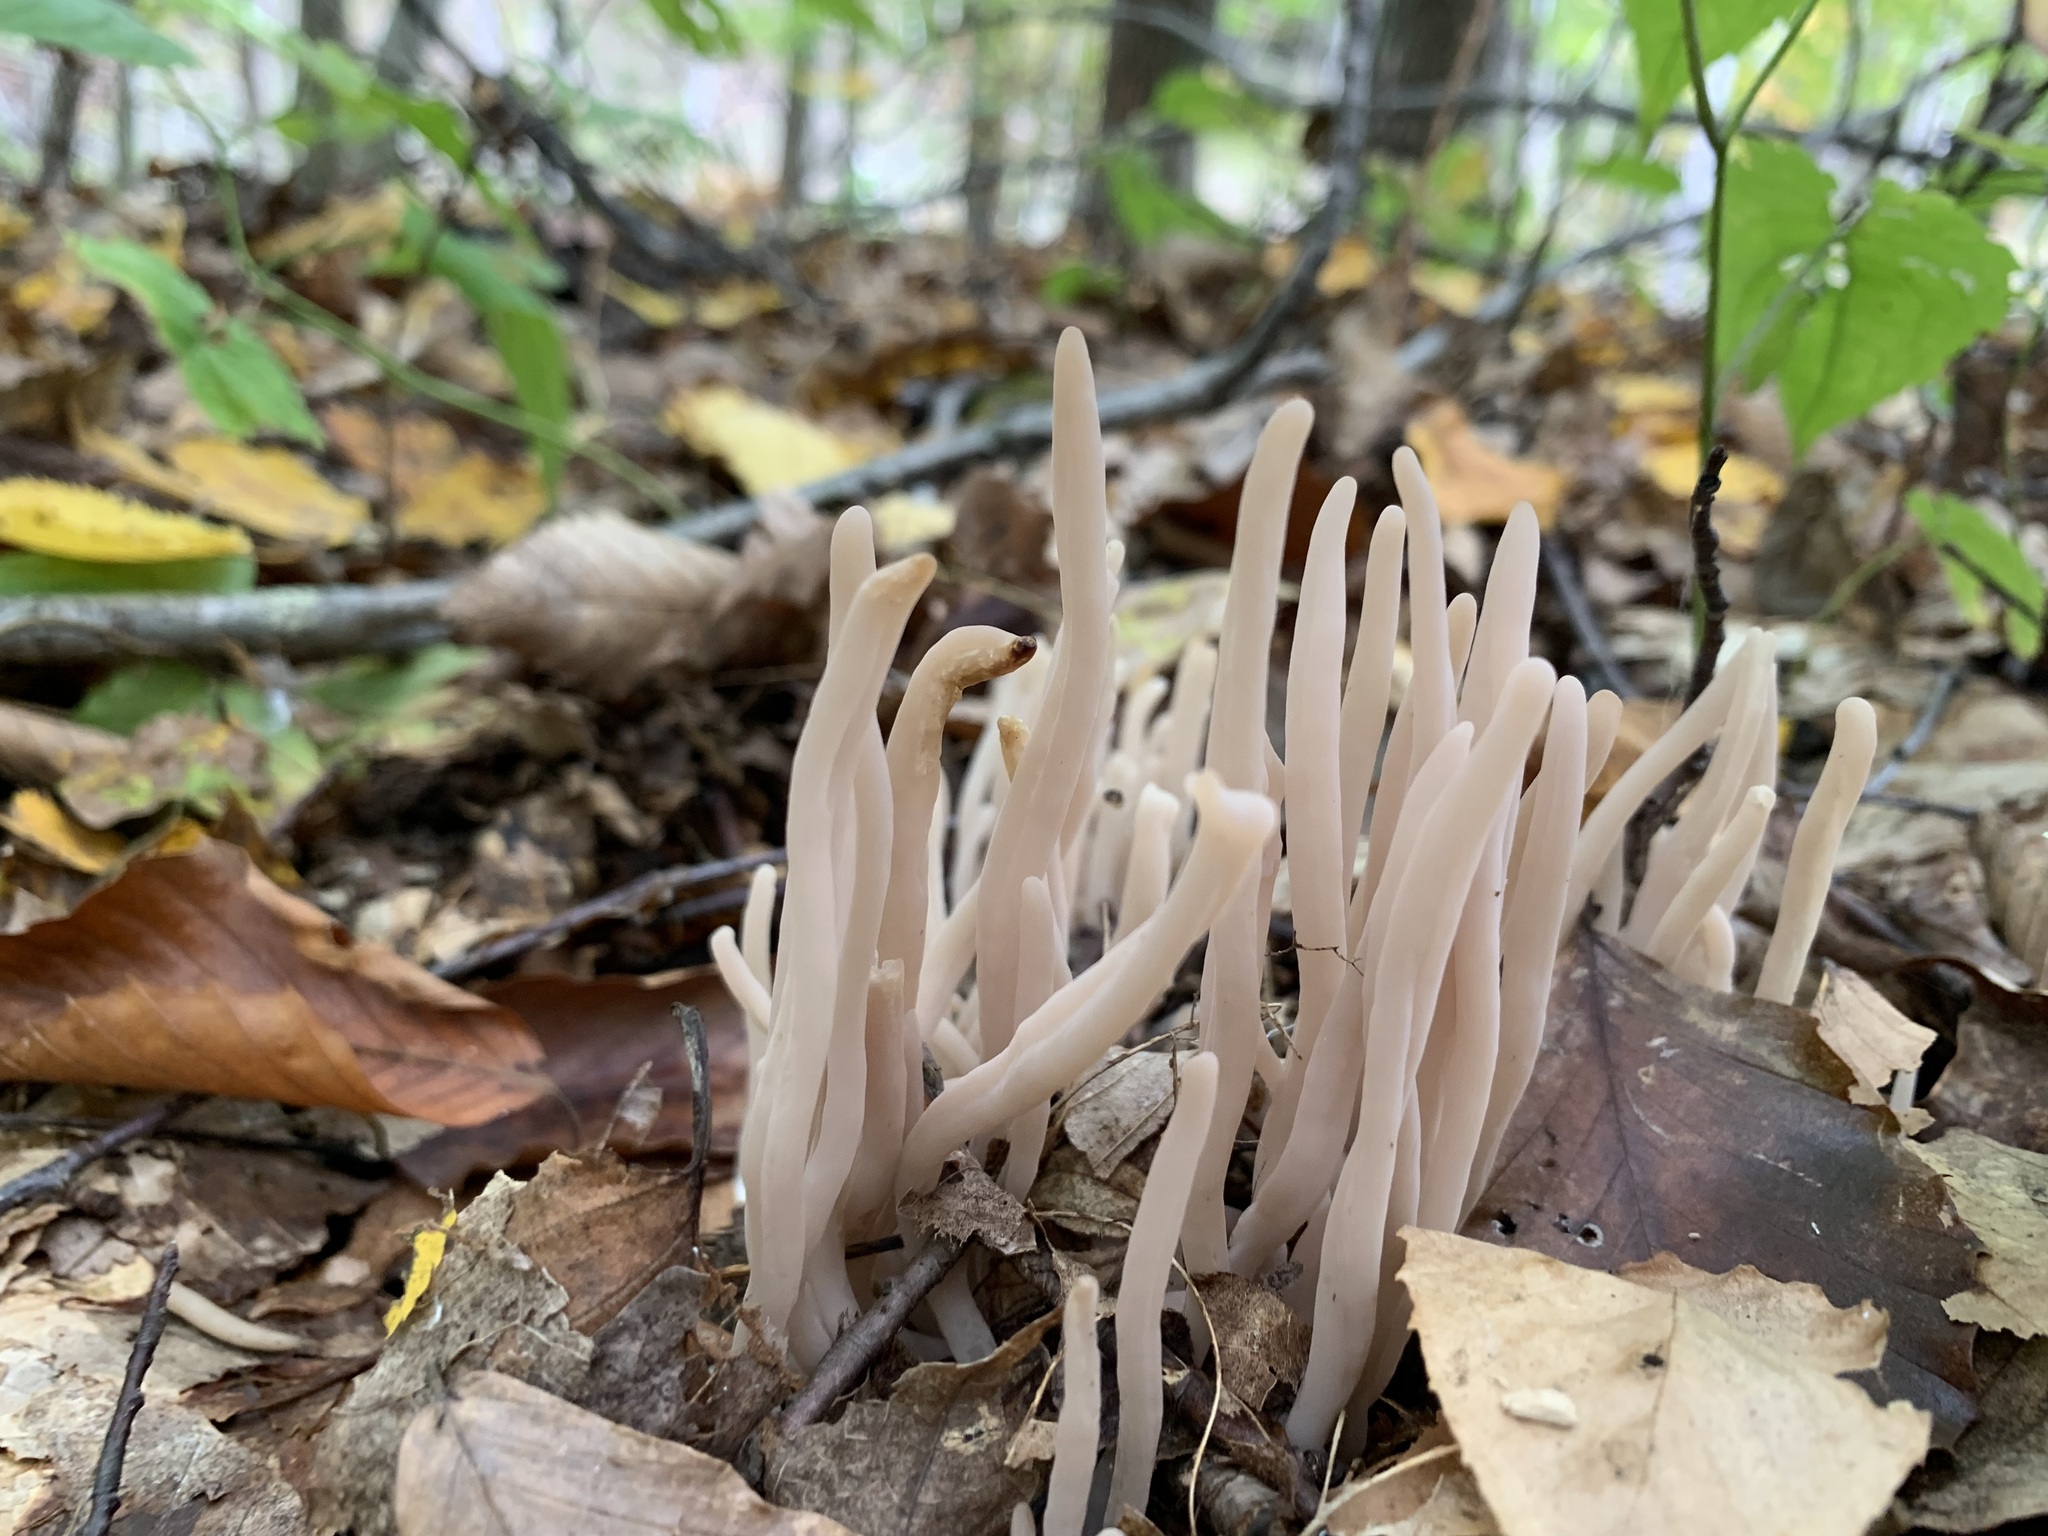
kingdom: Fungi
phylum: Basidiomycota
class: Agaricomycetes
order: Agaricales
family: Clavariaceae
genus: Clavaria
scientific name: Clavaria fumosa
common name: Smoky spindles
